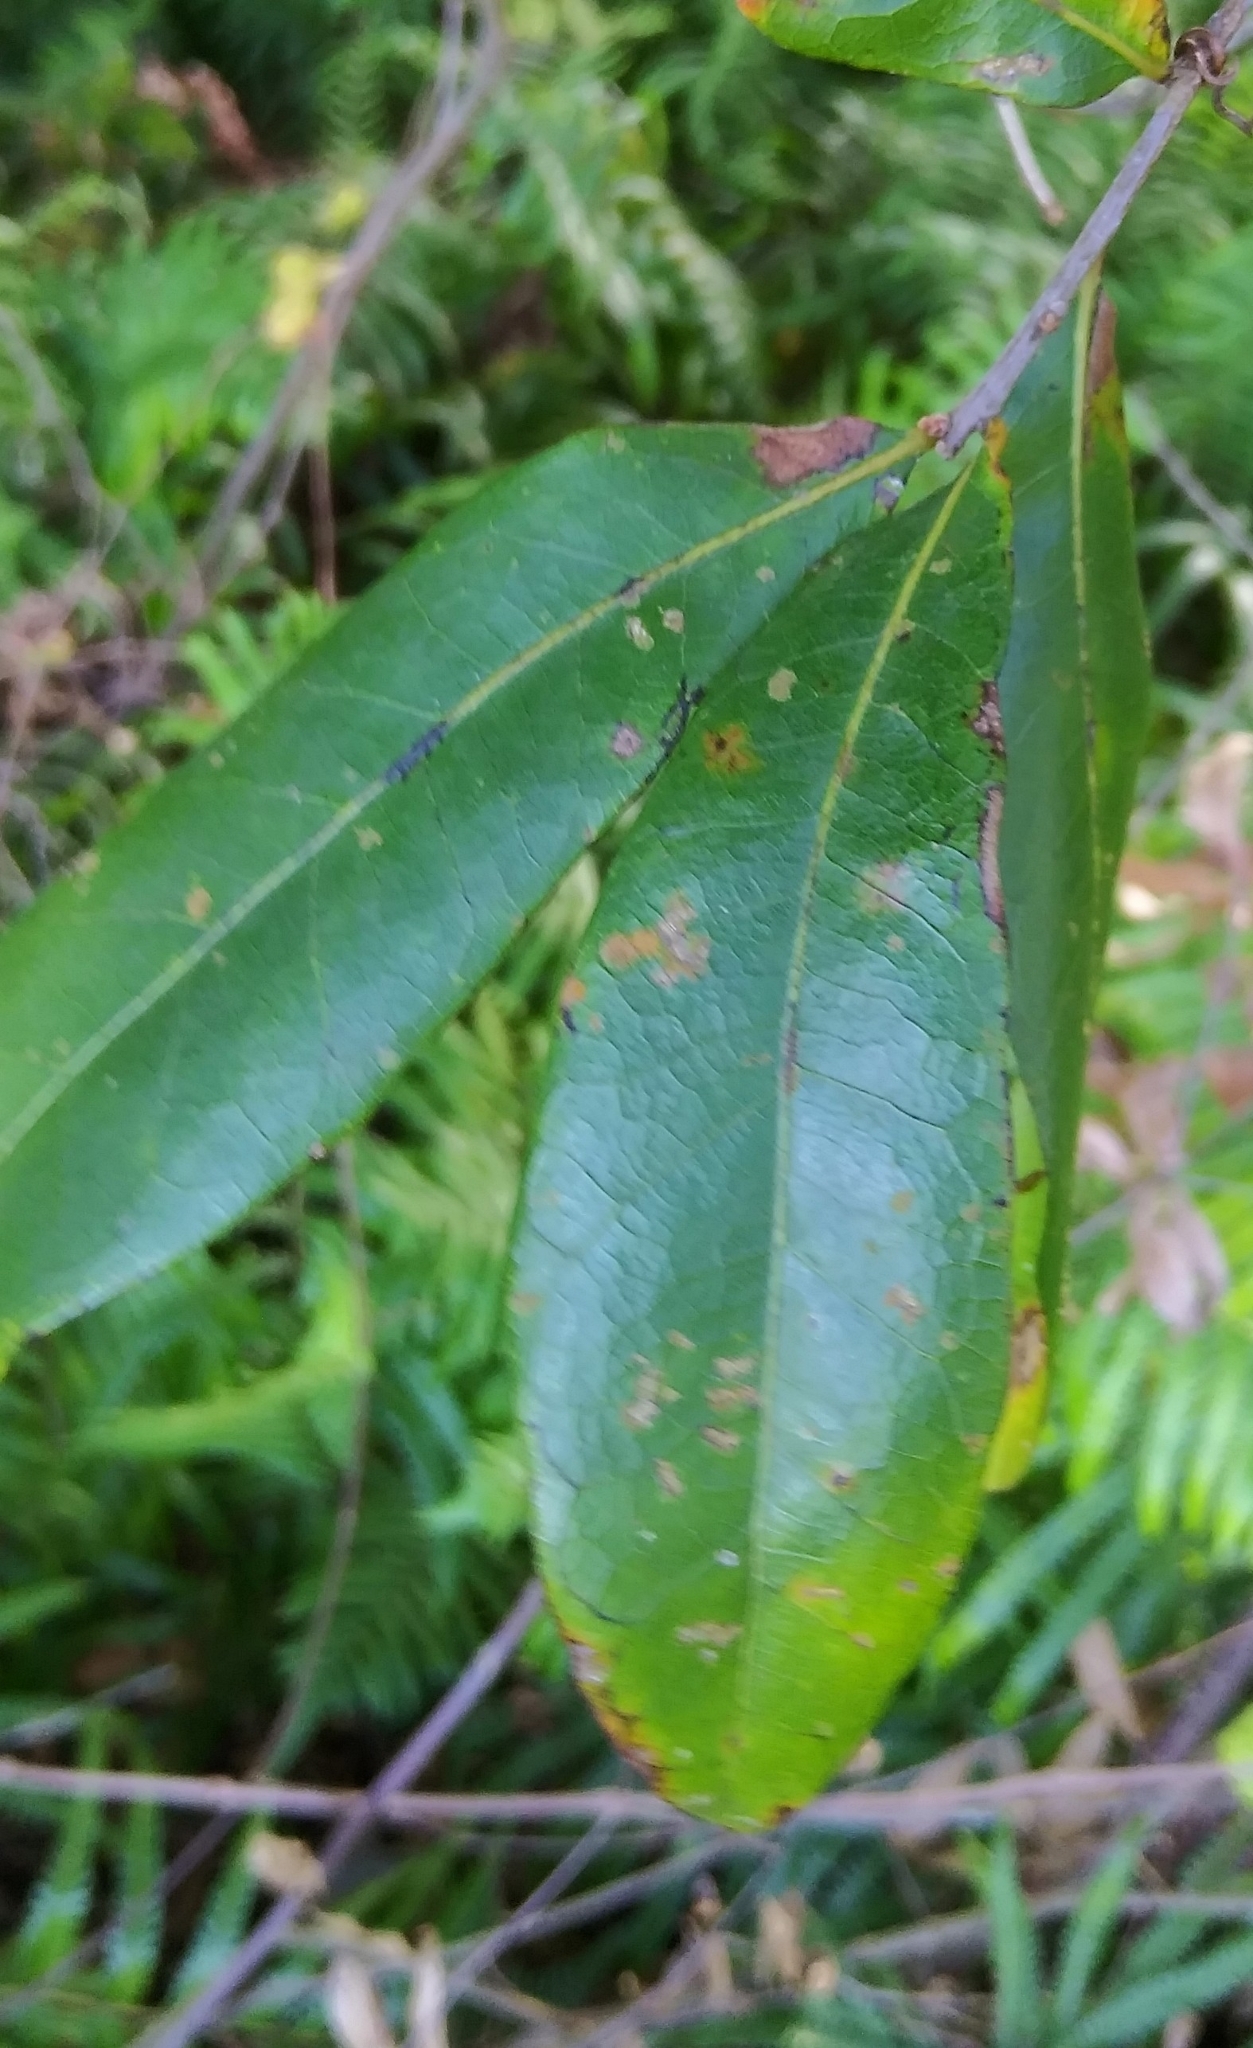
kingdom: Plantae
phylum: Tracheophyta
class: Magnoliopsida
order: Fagales
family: Fagaceae
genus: Quercus
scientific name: Quercus laurifolia
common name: Swamp laurel oak
